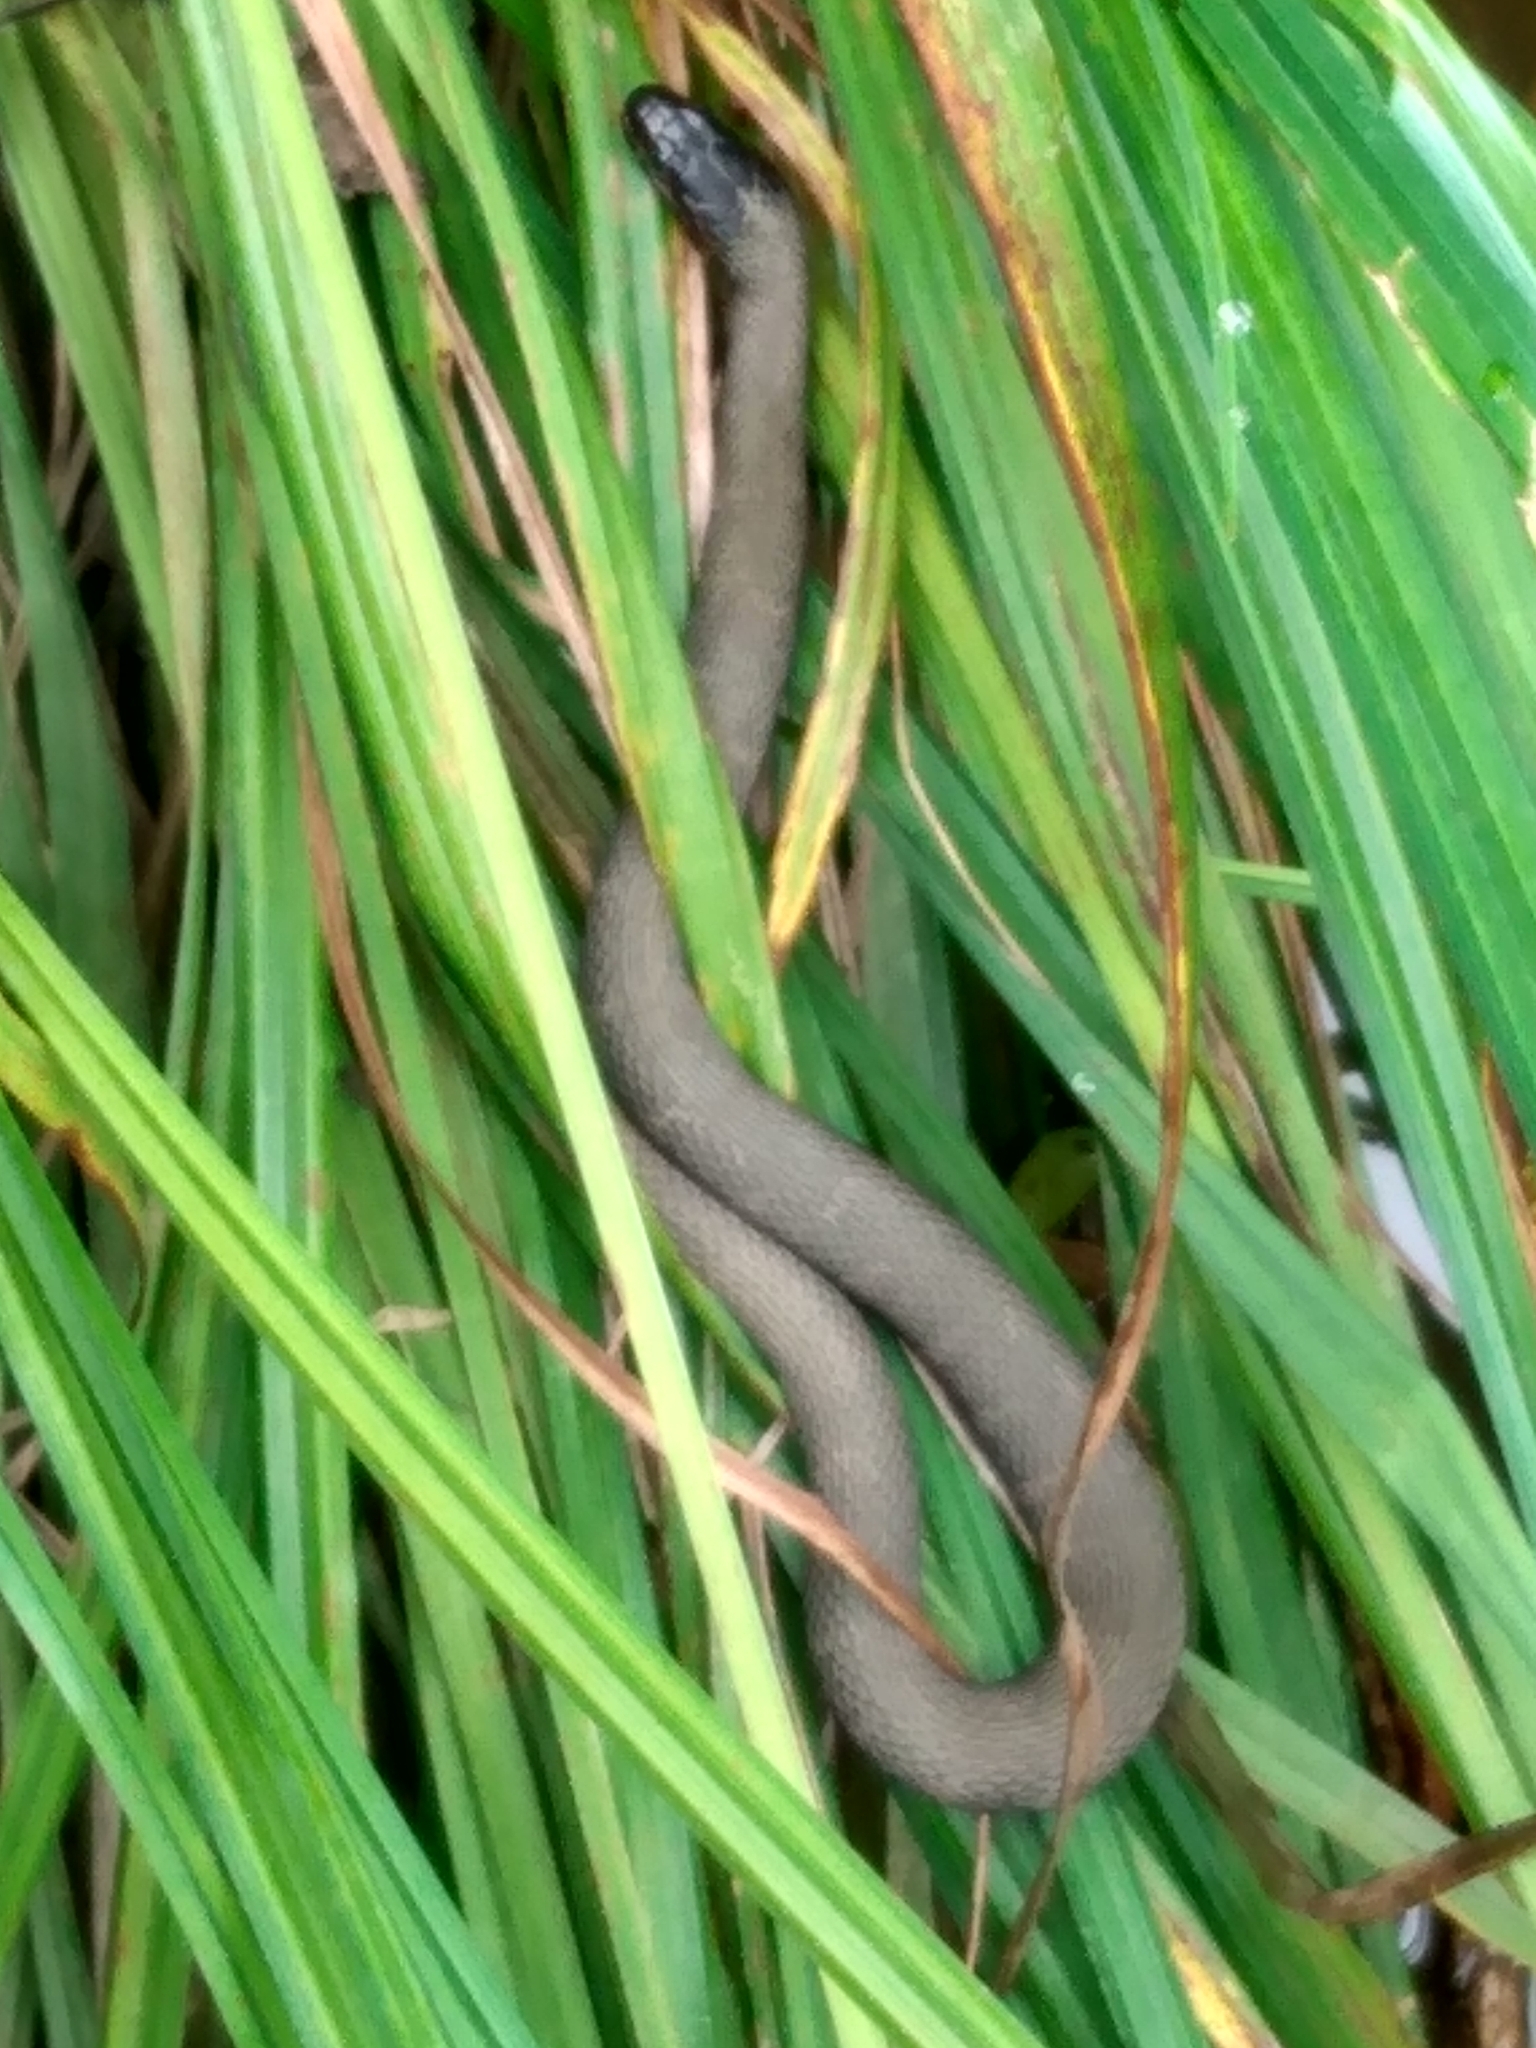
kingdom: Animalia
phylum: Chordata
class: Squamata
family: Colubridae
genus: Nerodia
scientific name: Nerodia sipedon
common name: Northern water snake
